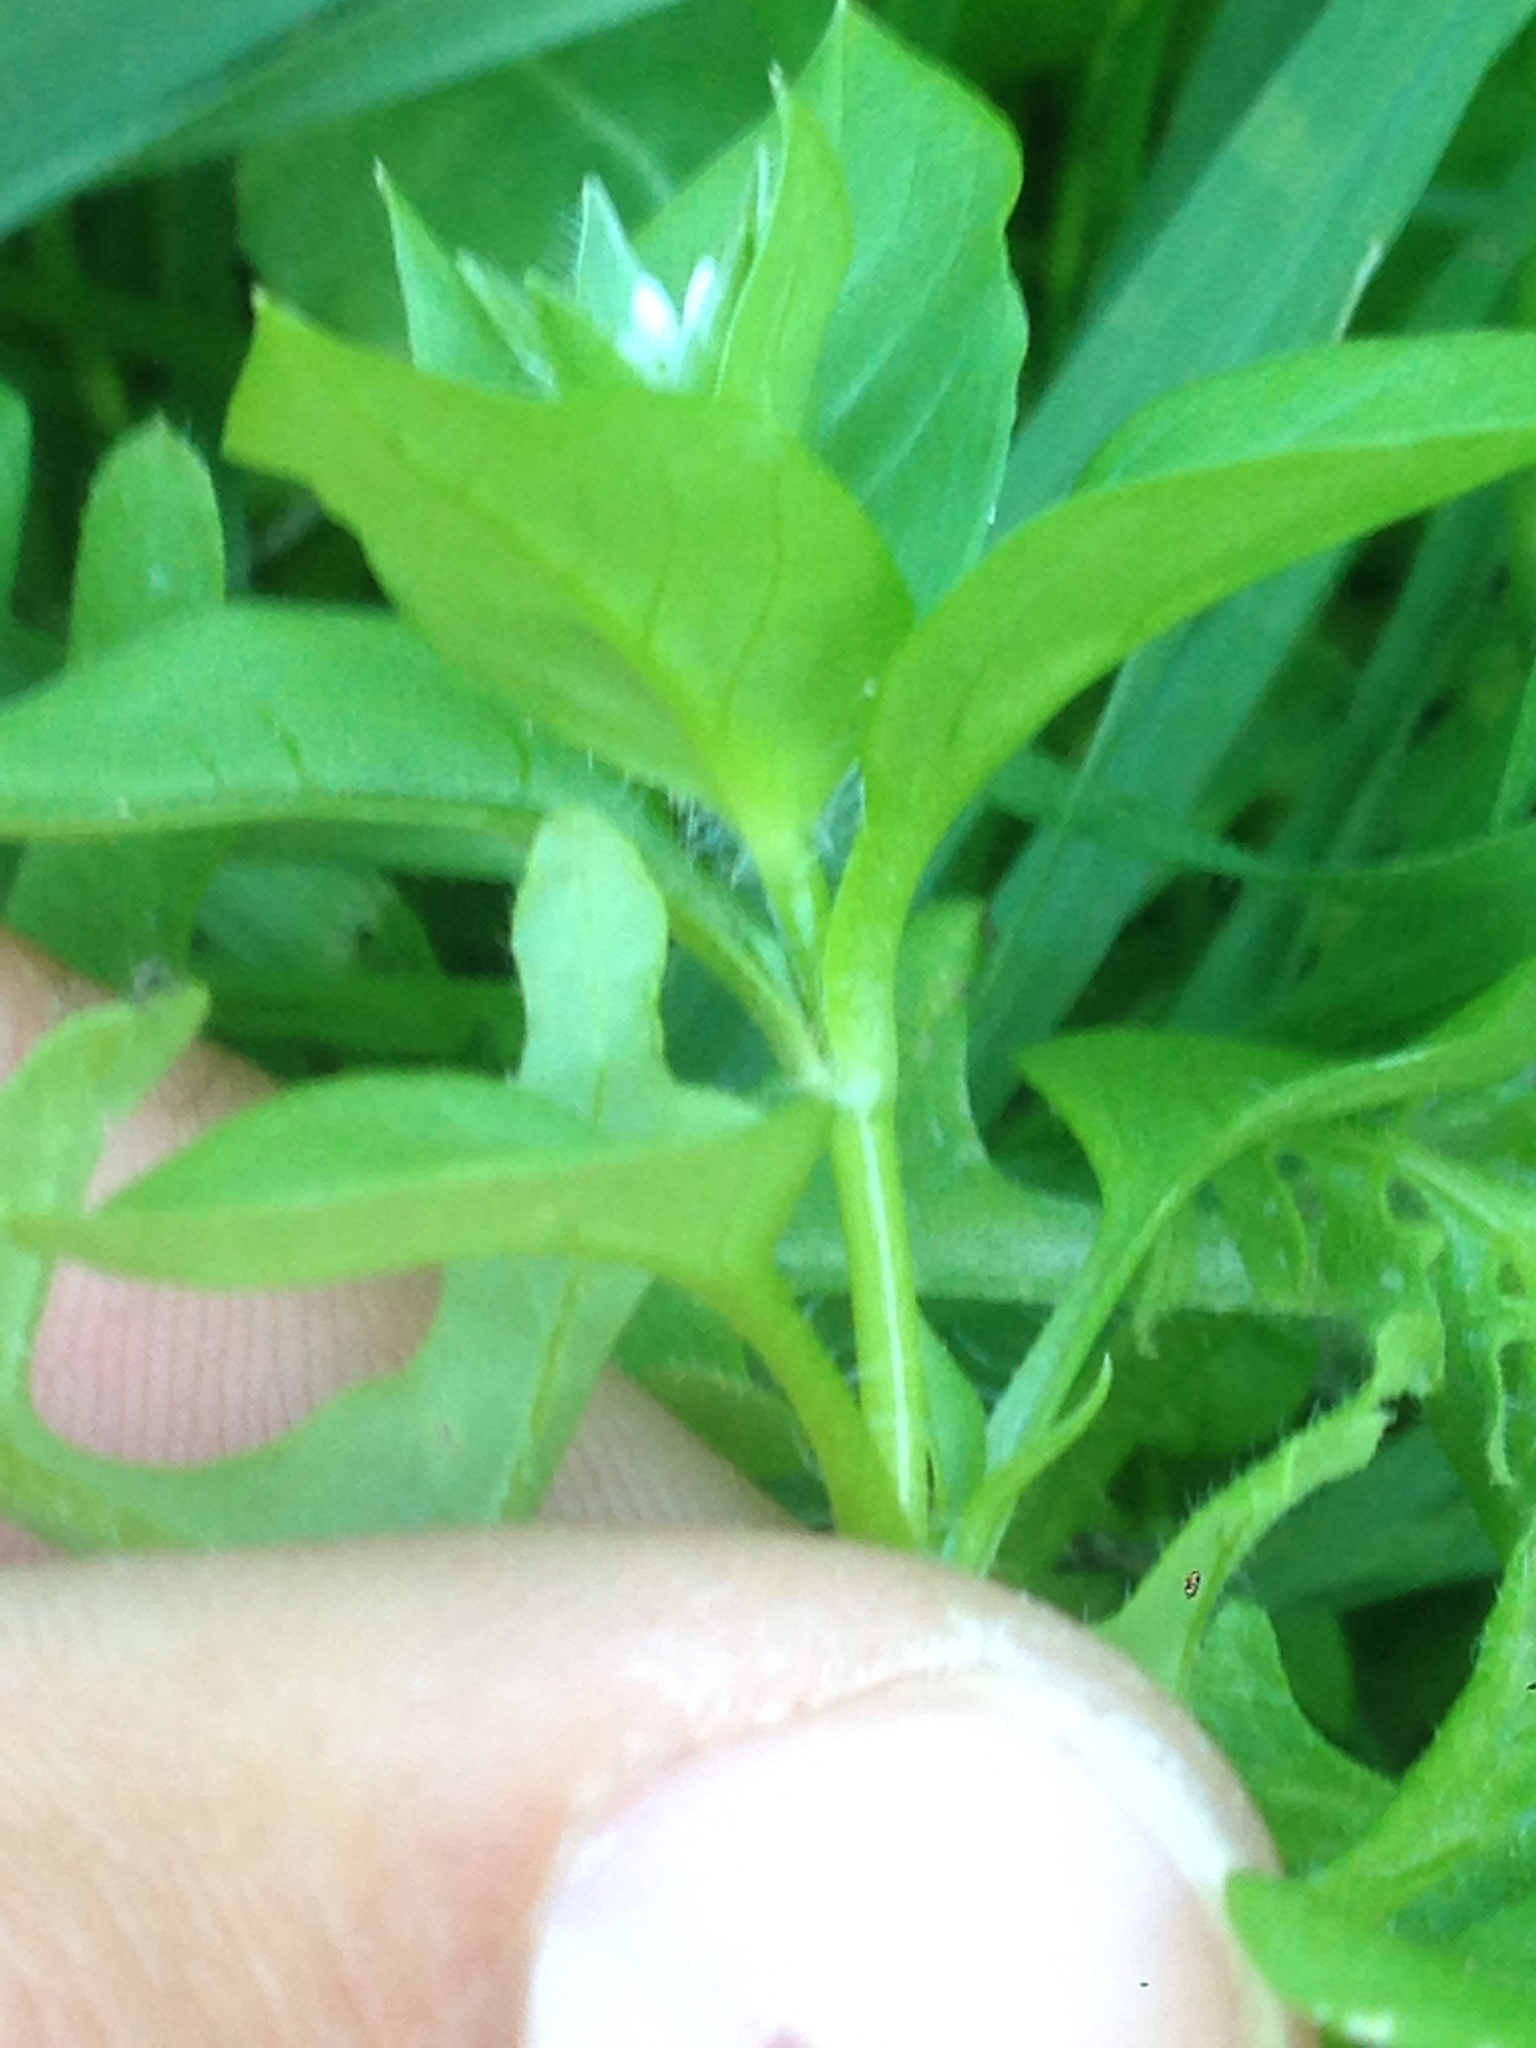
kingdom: Plantae
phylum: Tracheophyta
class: Magnoliopsida
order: Caryophyllales
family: Caryophyllaceae
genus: Stellaria
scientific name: Stellaria media
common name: Common chickweed
